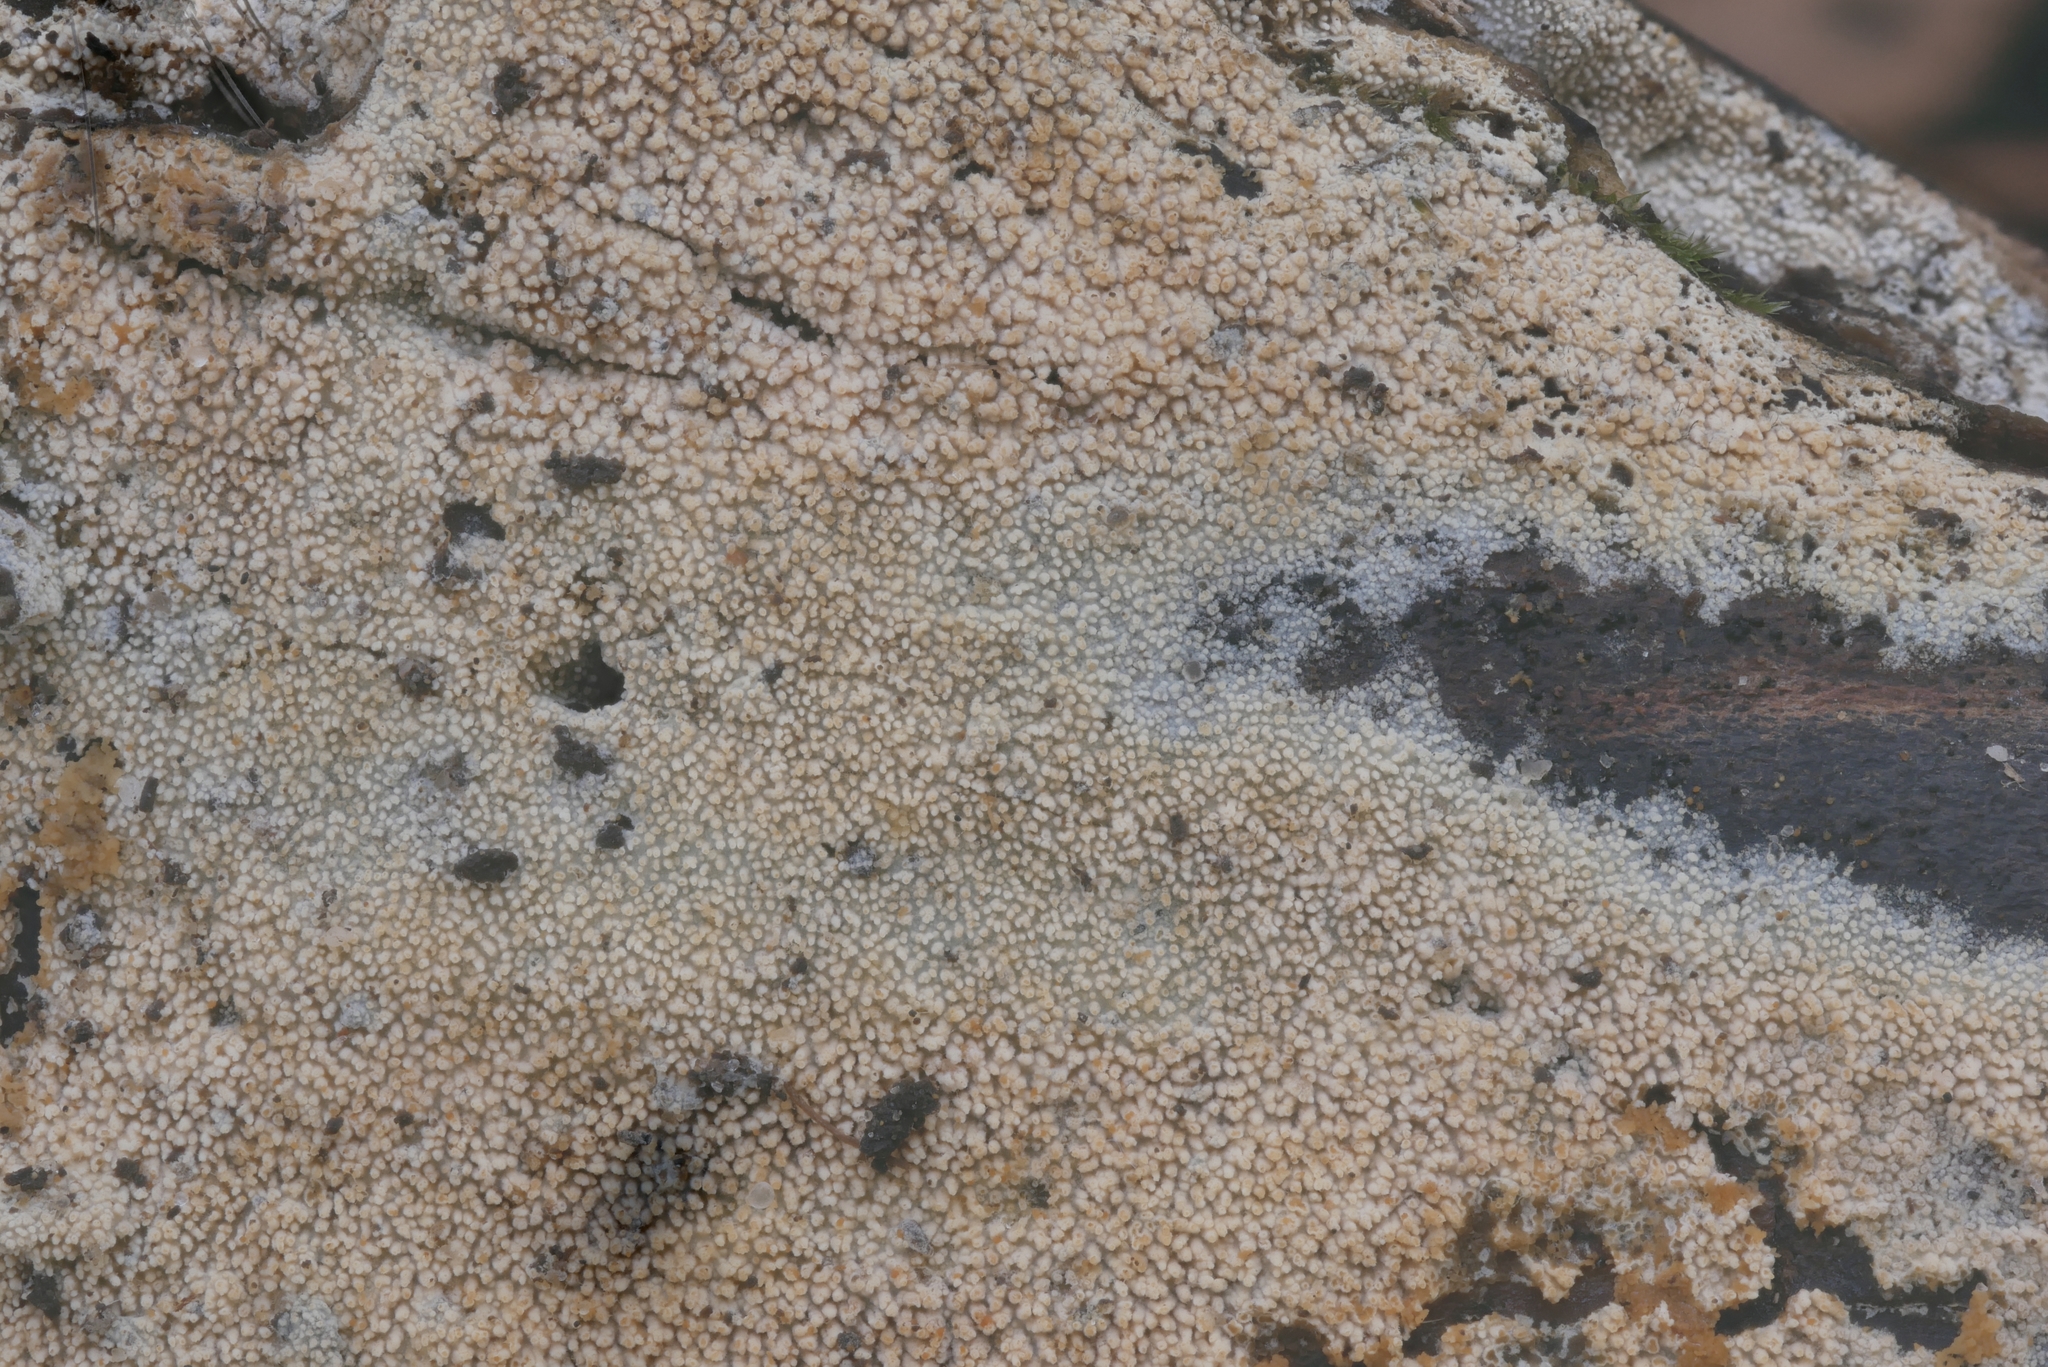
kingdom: Fungi
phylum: Basidiomycota
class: Agaricomycetes
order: Hymenochaetales
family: Hyphodontiaceae
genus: Hyphodontia
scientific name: Hyphodontia arguta
